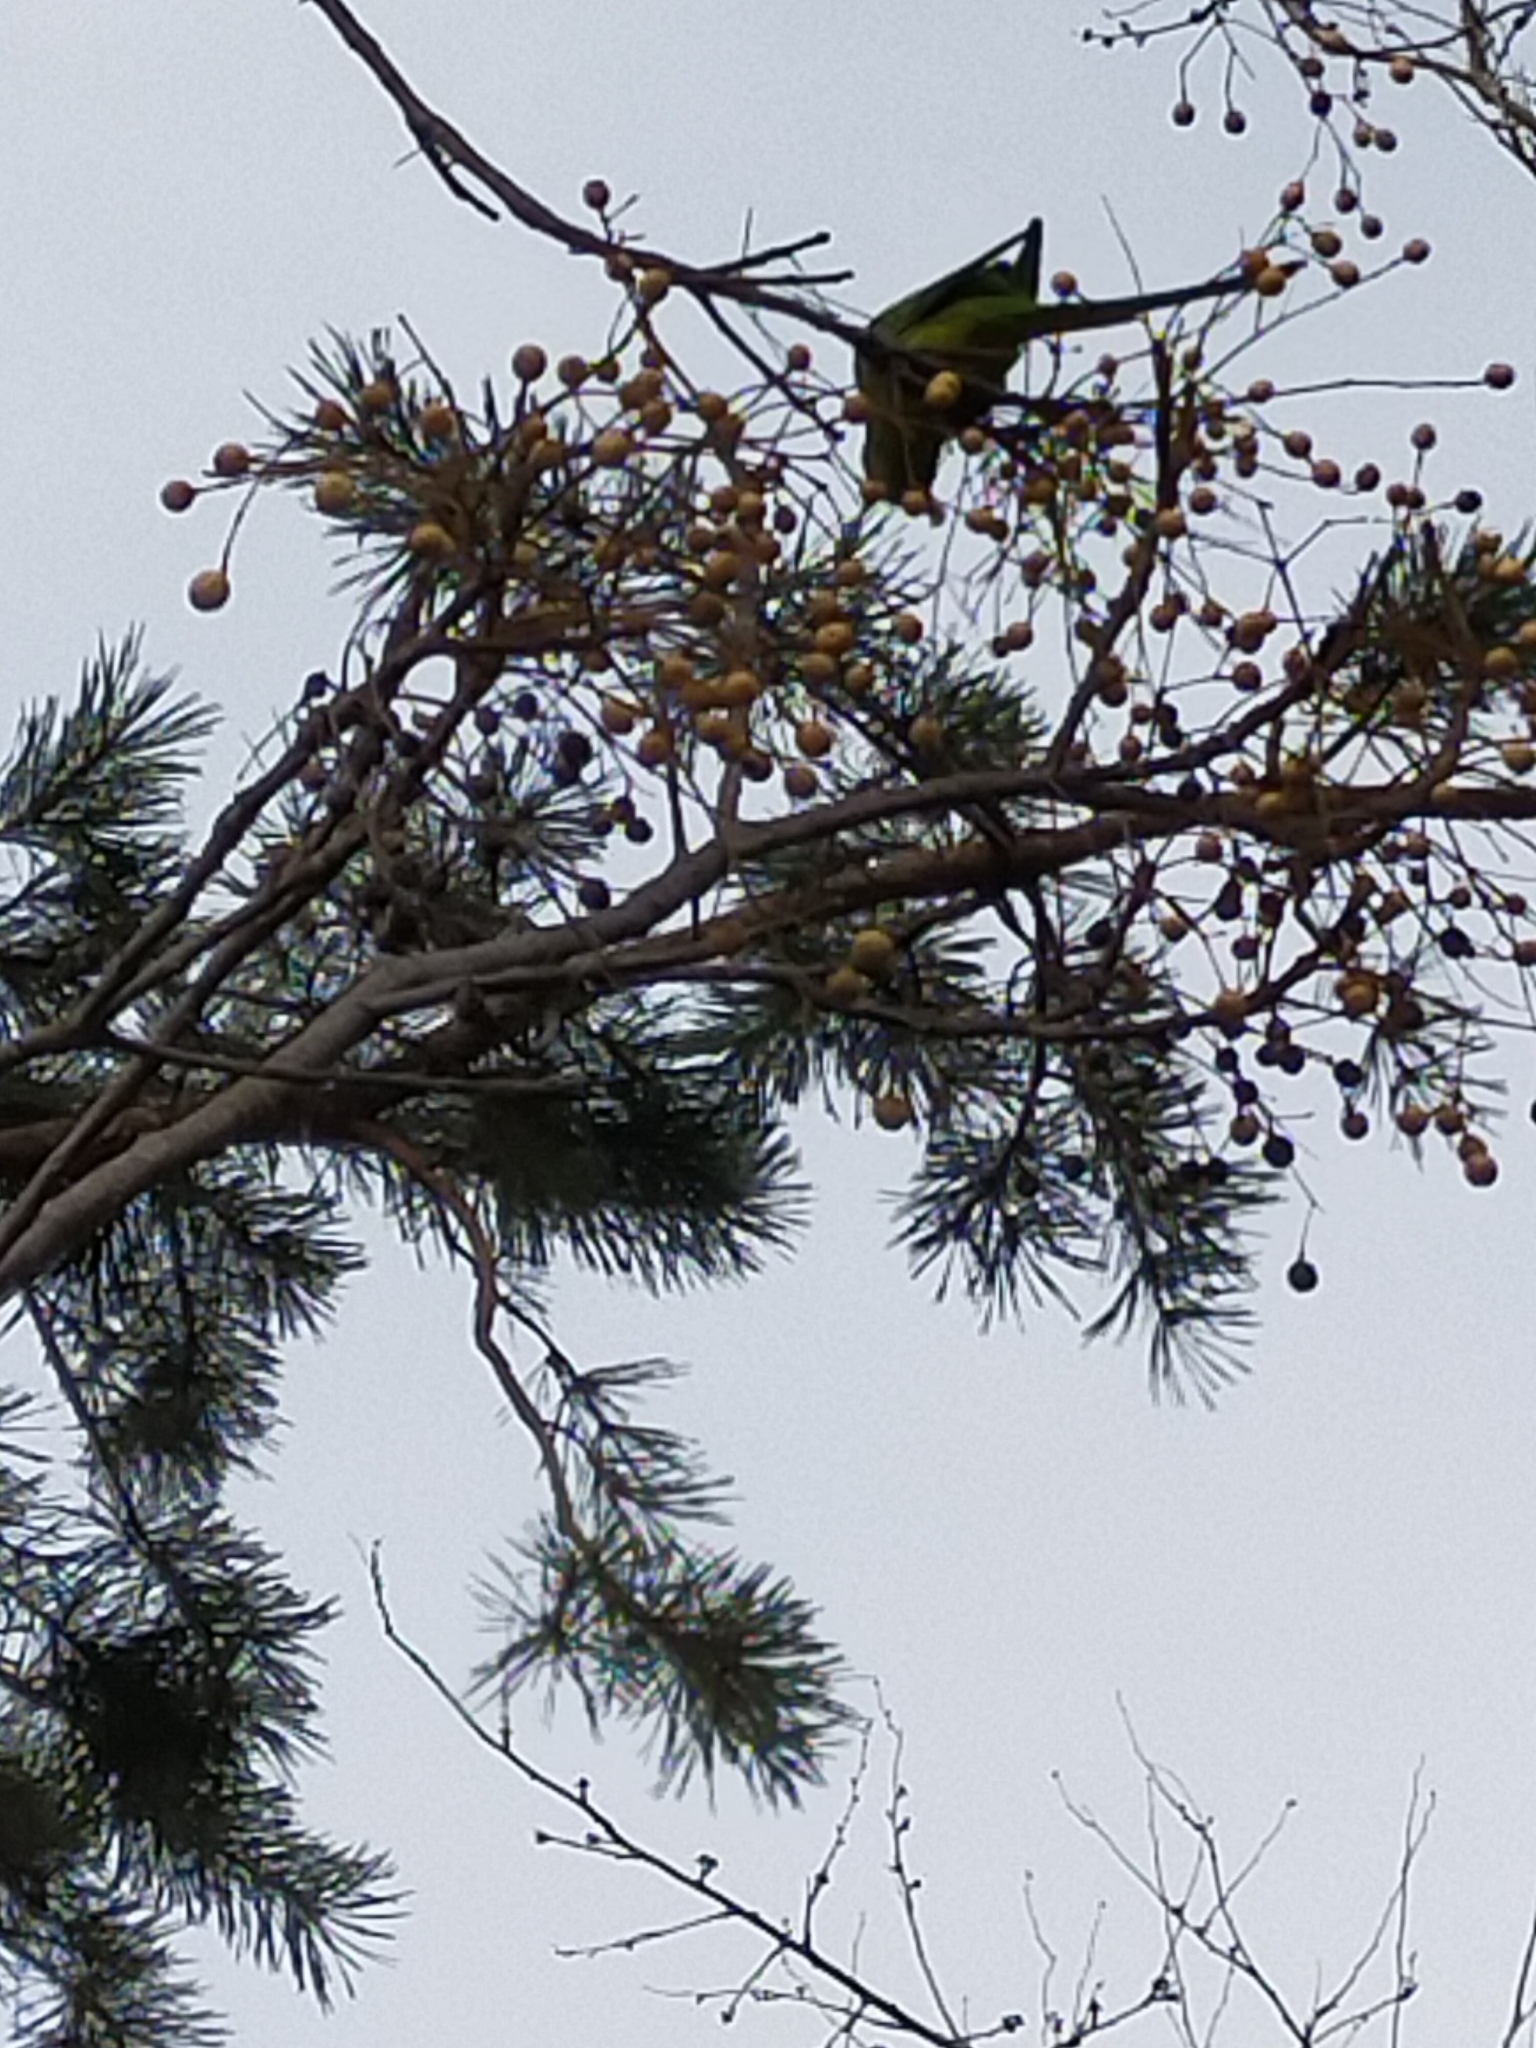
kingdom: Animalia
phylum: Chordata
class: Aves
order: Psittaciformes
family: Psittacidae
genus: Psittacula
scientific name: Psittacula krameri
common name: Rose-ringed parakeet
